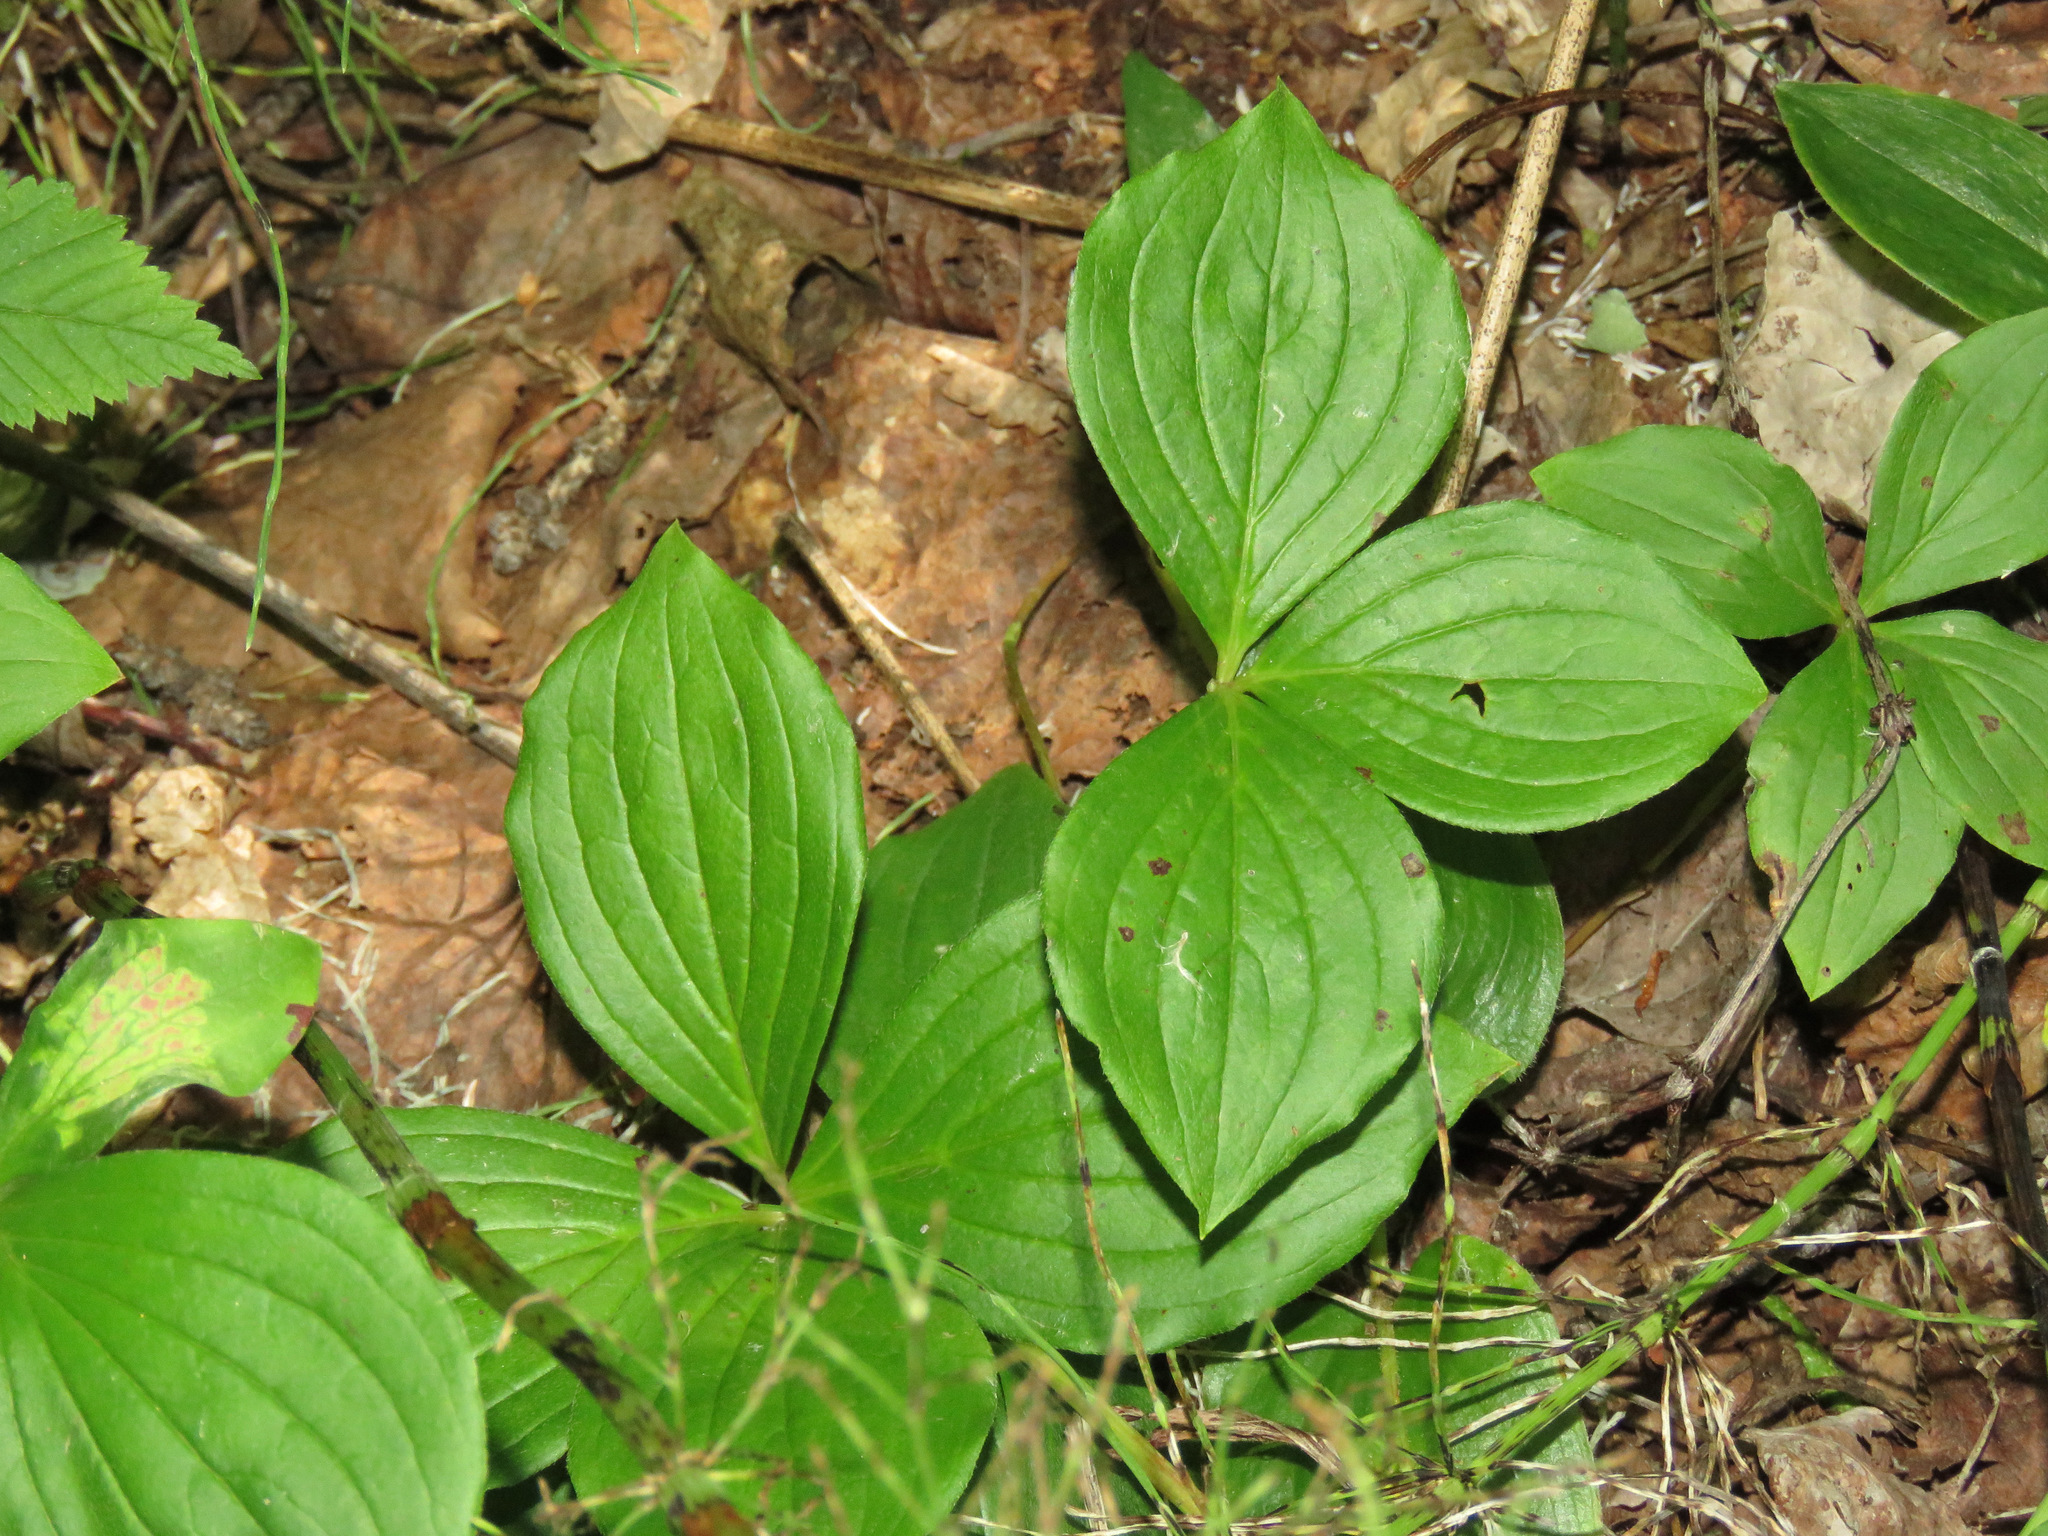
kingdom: Plantae
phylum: Tracheophyta
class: Magnoliopsida
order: Cornales
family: Cornaceae
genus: Cornus
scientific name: Cornus canadensis
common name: Creeping dogwood
